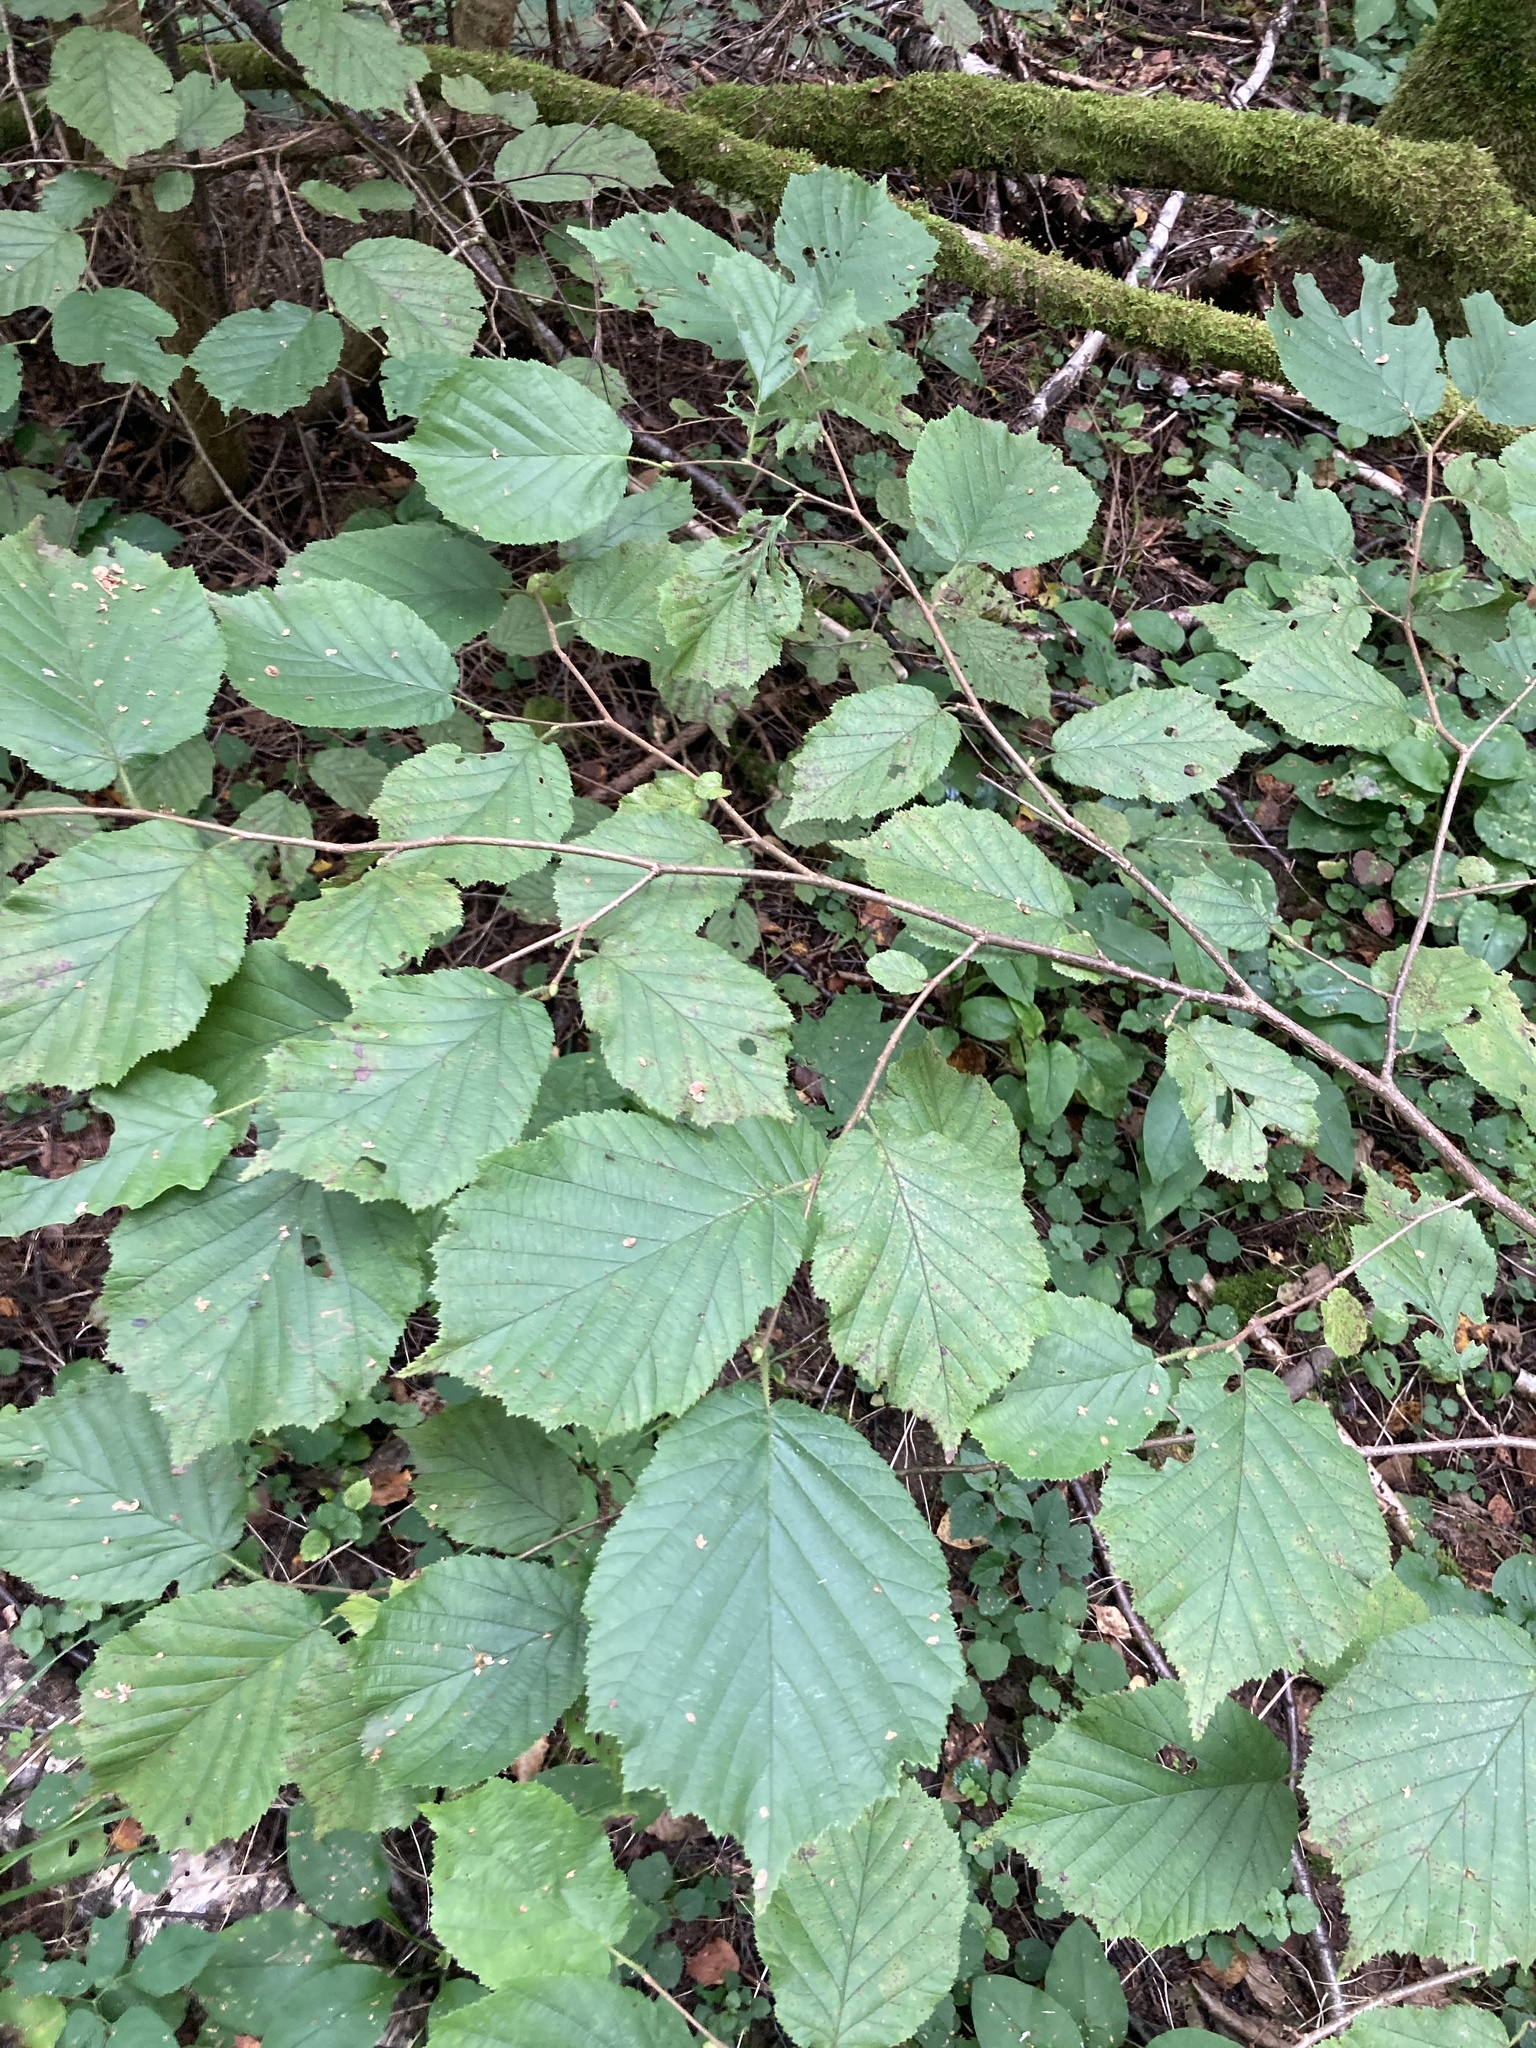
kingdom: Plantae
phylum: Tracheophyta
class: Magnoliopsida
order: Fagales
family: Betulaceae
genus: Corylus
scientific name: Corylus avellana
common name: European hazel
